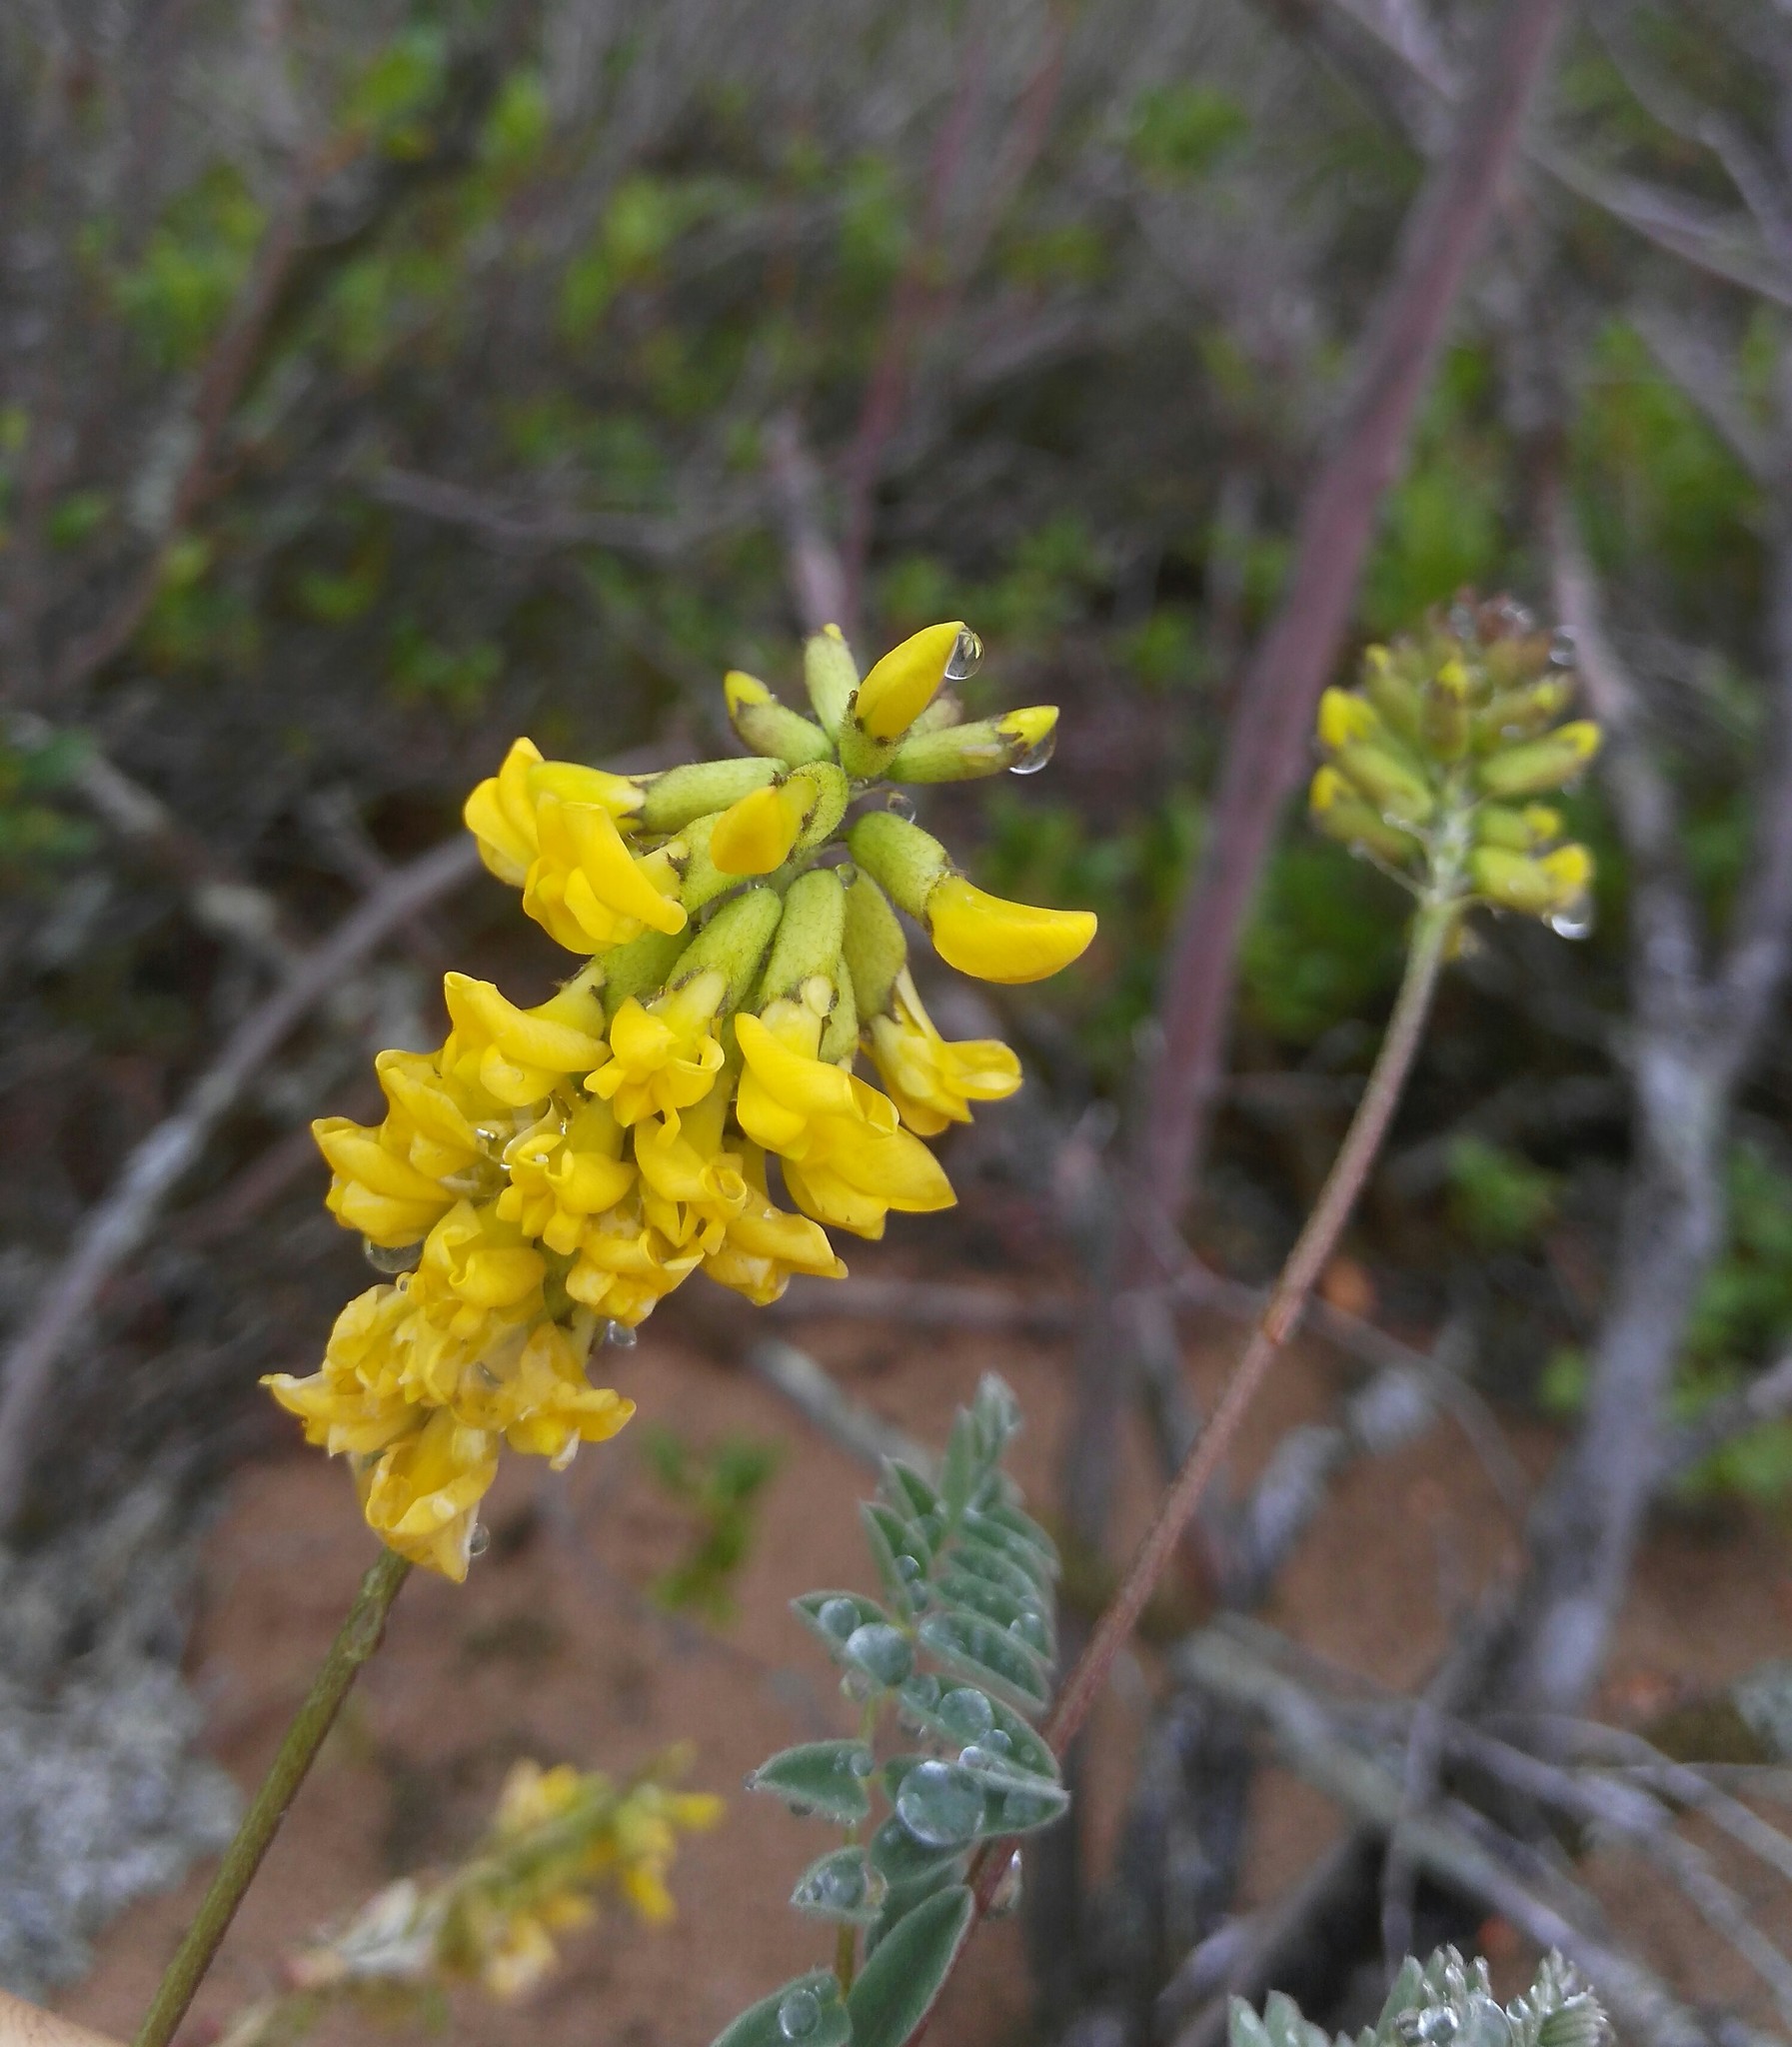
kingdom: Plantae
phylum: Tracheophyta
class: Magnoliopsida
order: Fabales
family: Fabaceae
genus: Astragalus
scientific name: Astragalus sericeocanus
